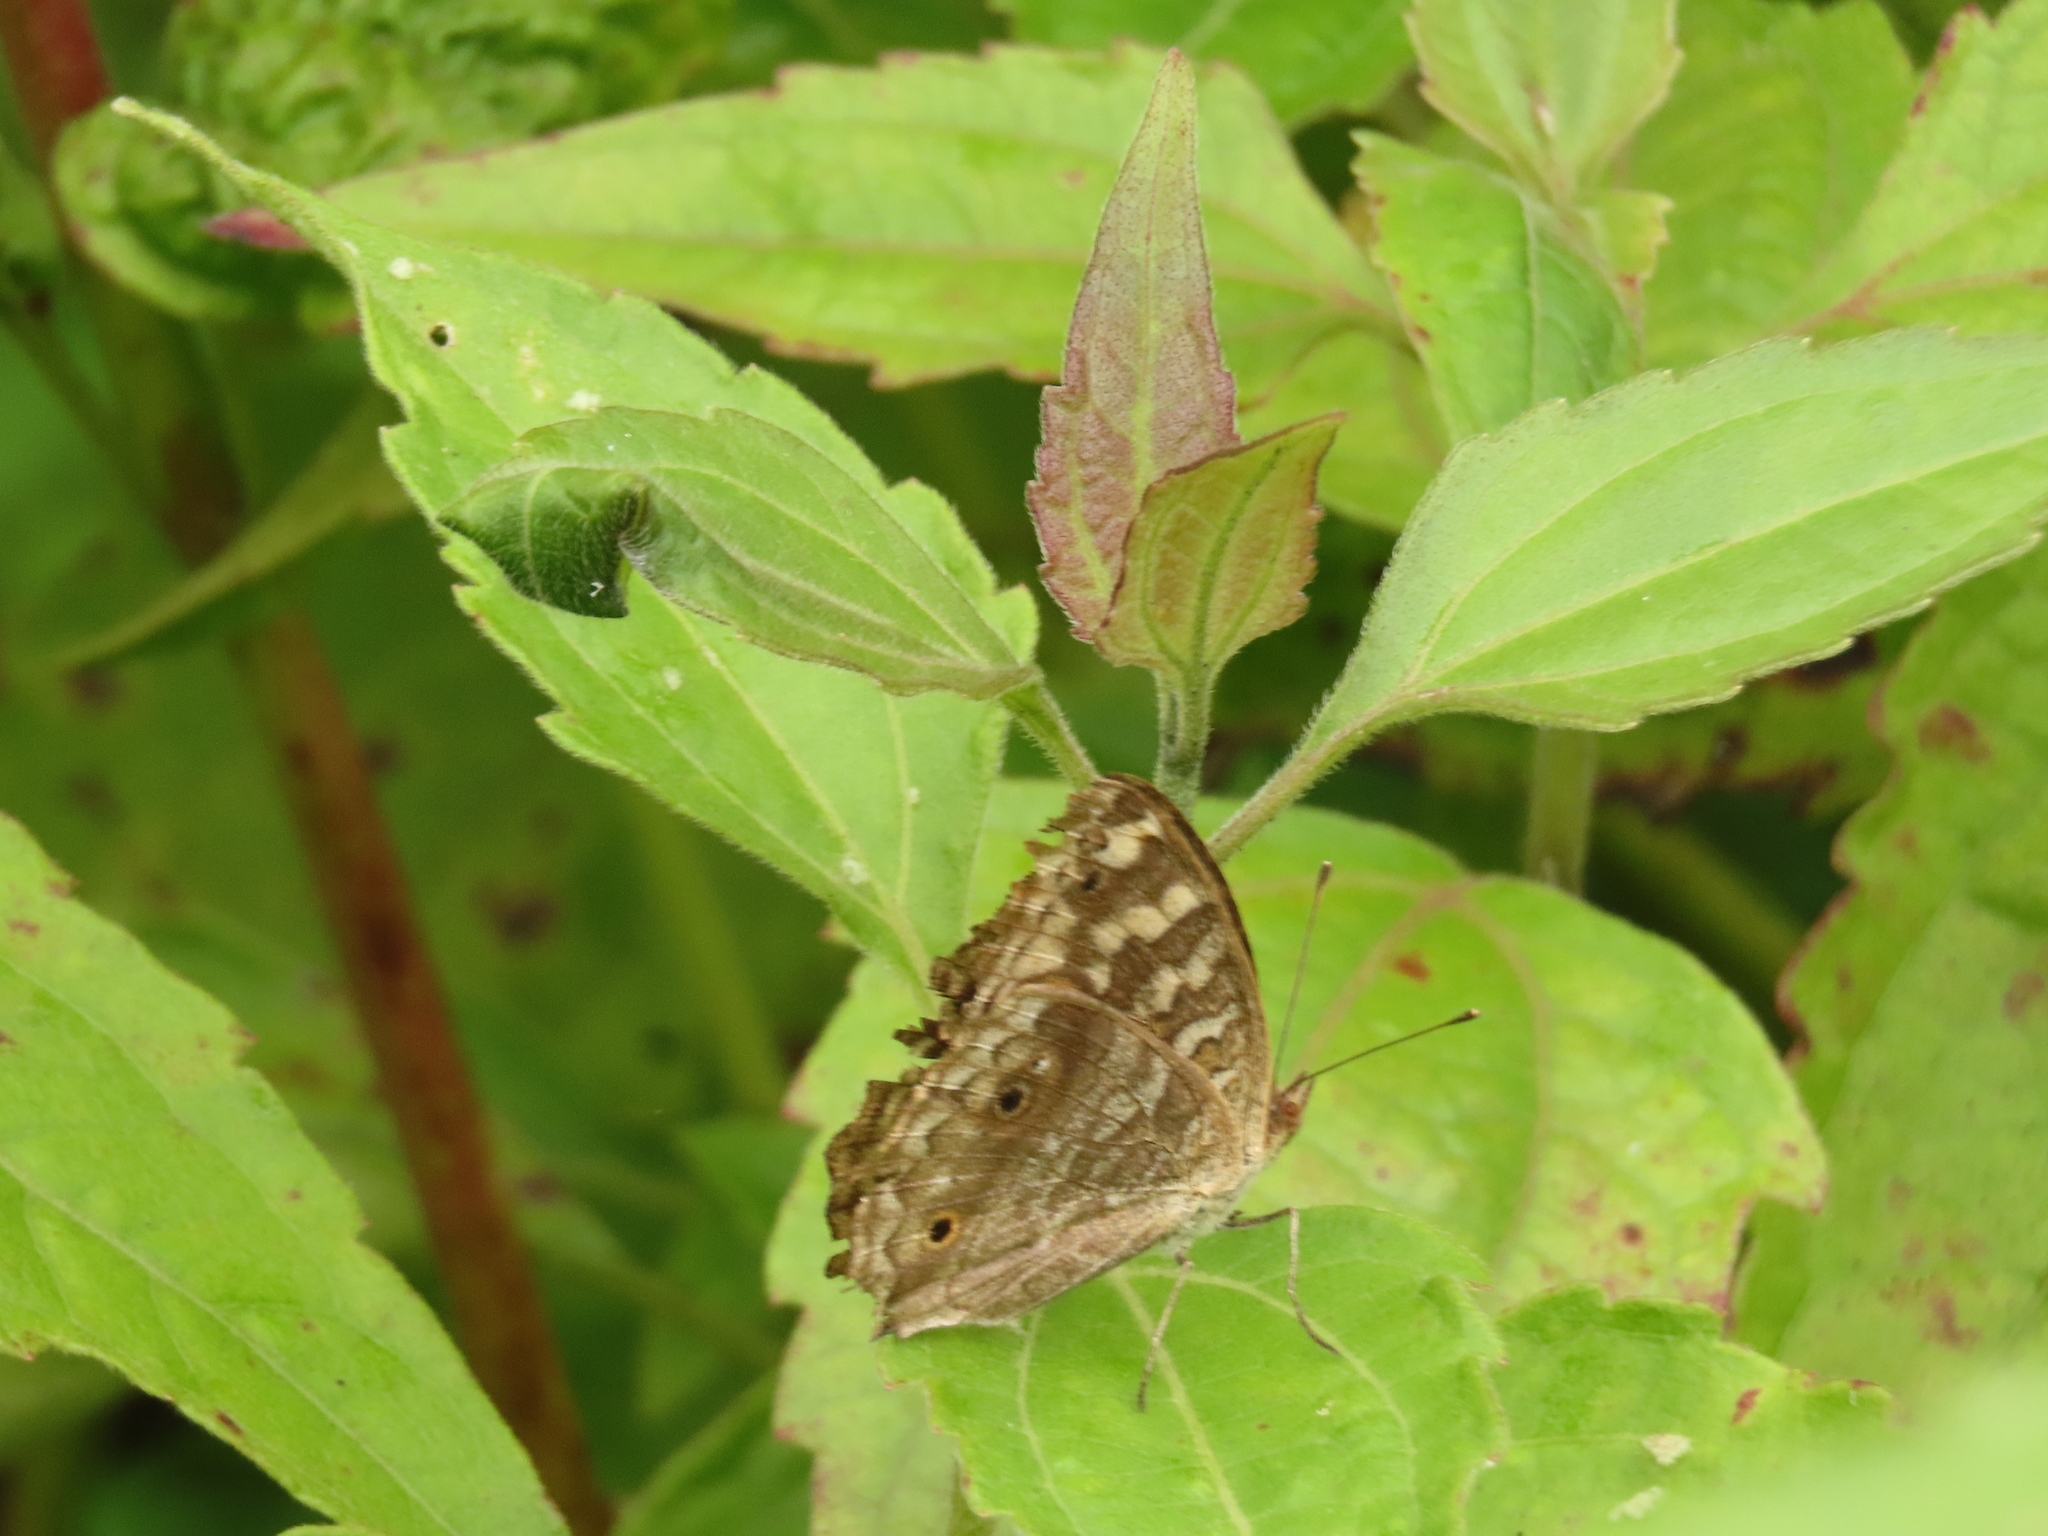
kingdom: Animalia
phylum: Arthropoda
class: Insecta
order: Lepidoptera
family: Nymphalidae
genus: Junonia
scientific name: Junonia lemonias
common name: Lemon pansy
